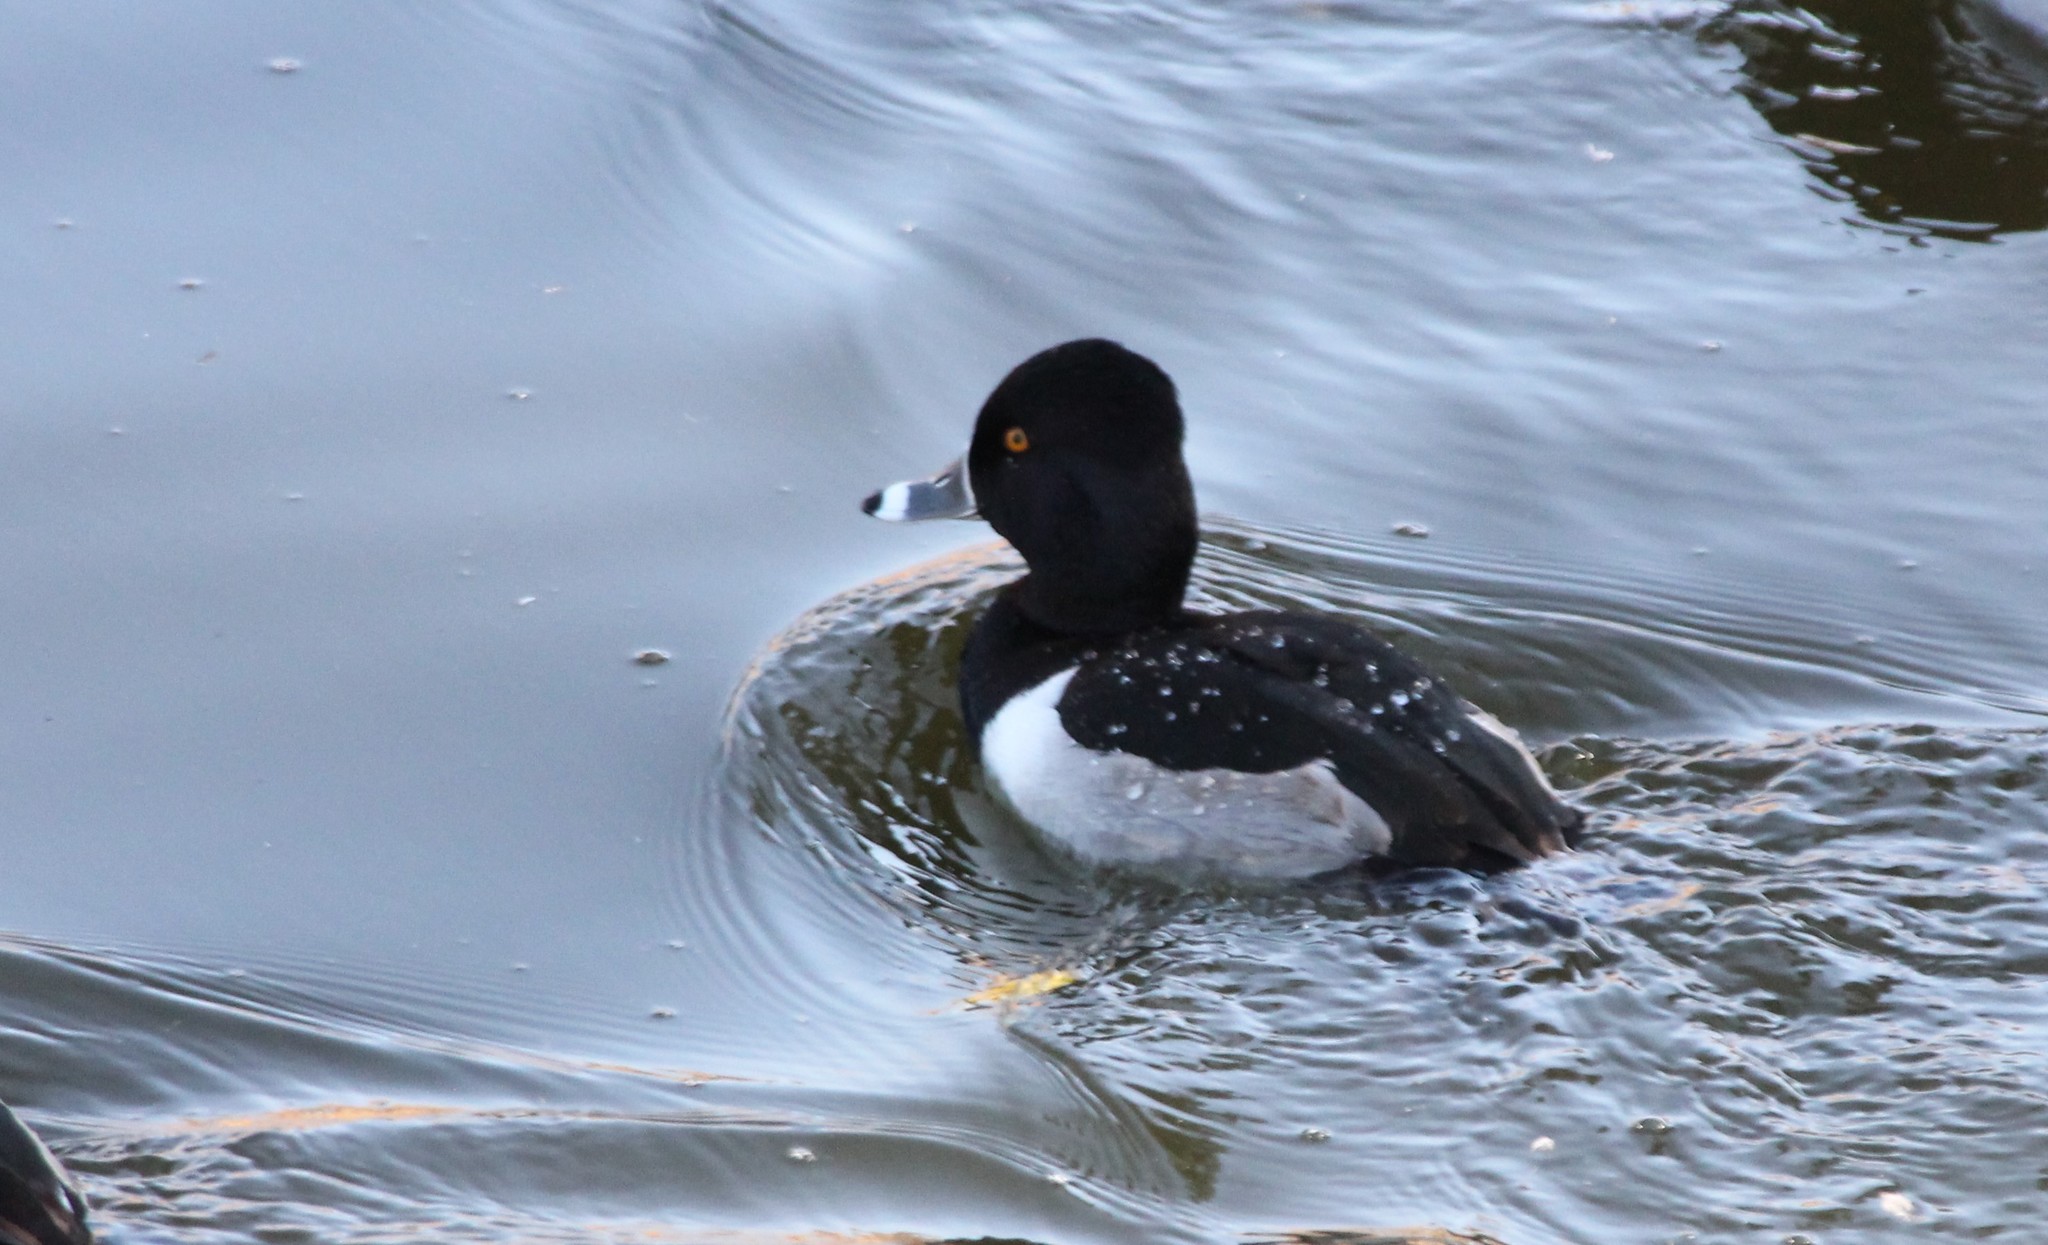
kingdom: Animalia
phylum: Chordata
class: Aves
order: Anseriformes
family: Anatidae
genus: Aythya
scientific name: Aythya collaris
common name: Ring-necked duck
